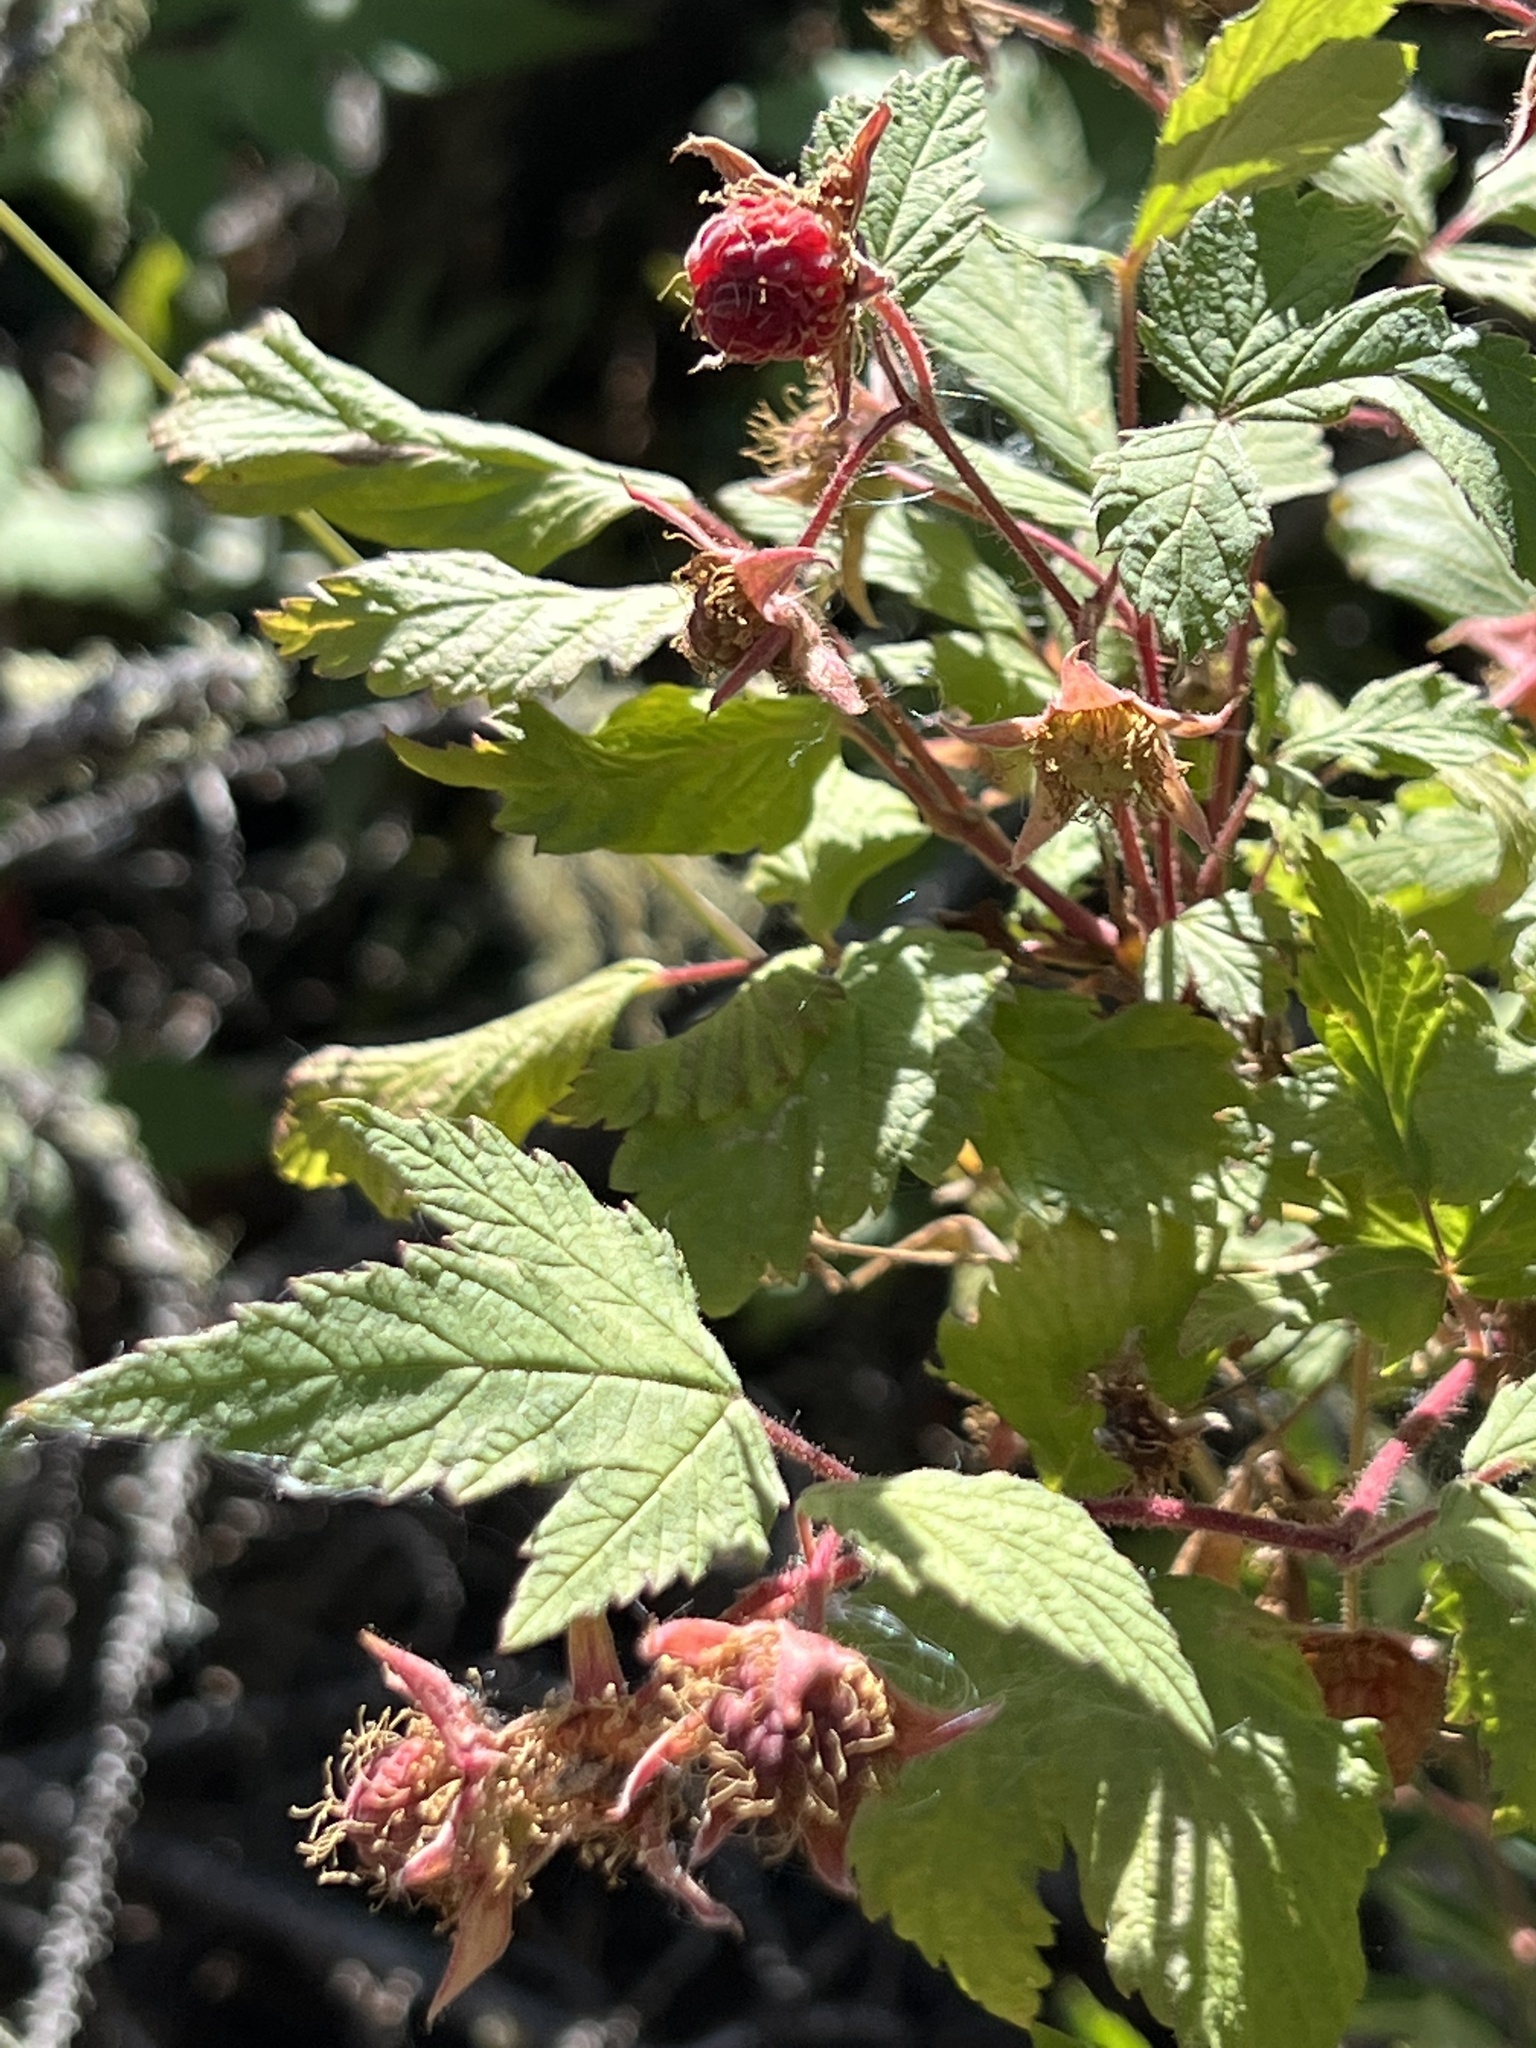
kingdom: Plantae
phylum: Tracheophyta
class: Magnoliopsida
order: Rosales
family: Rosaceae
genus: Rubus
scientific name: Rubus idaeus
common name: Raspberry
